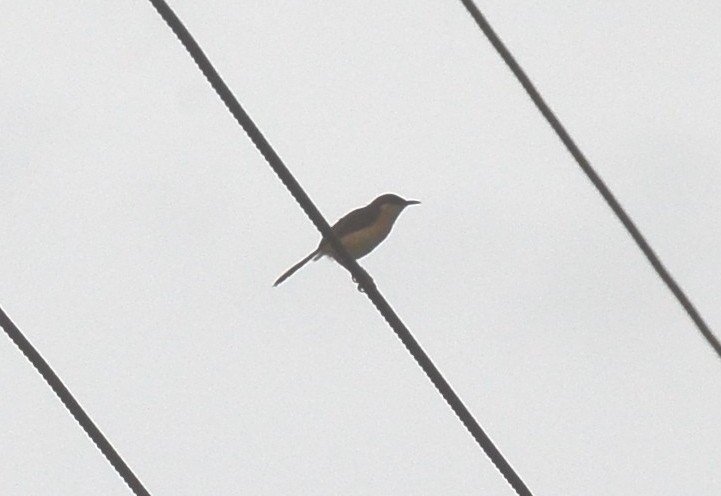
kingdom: Animalia
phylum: Chordata
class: Aves
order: Passeriformes
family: Cisticolidae
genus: Prinia
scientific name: Prinia socialis
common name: Ashy prinia
